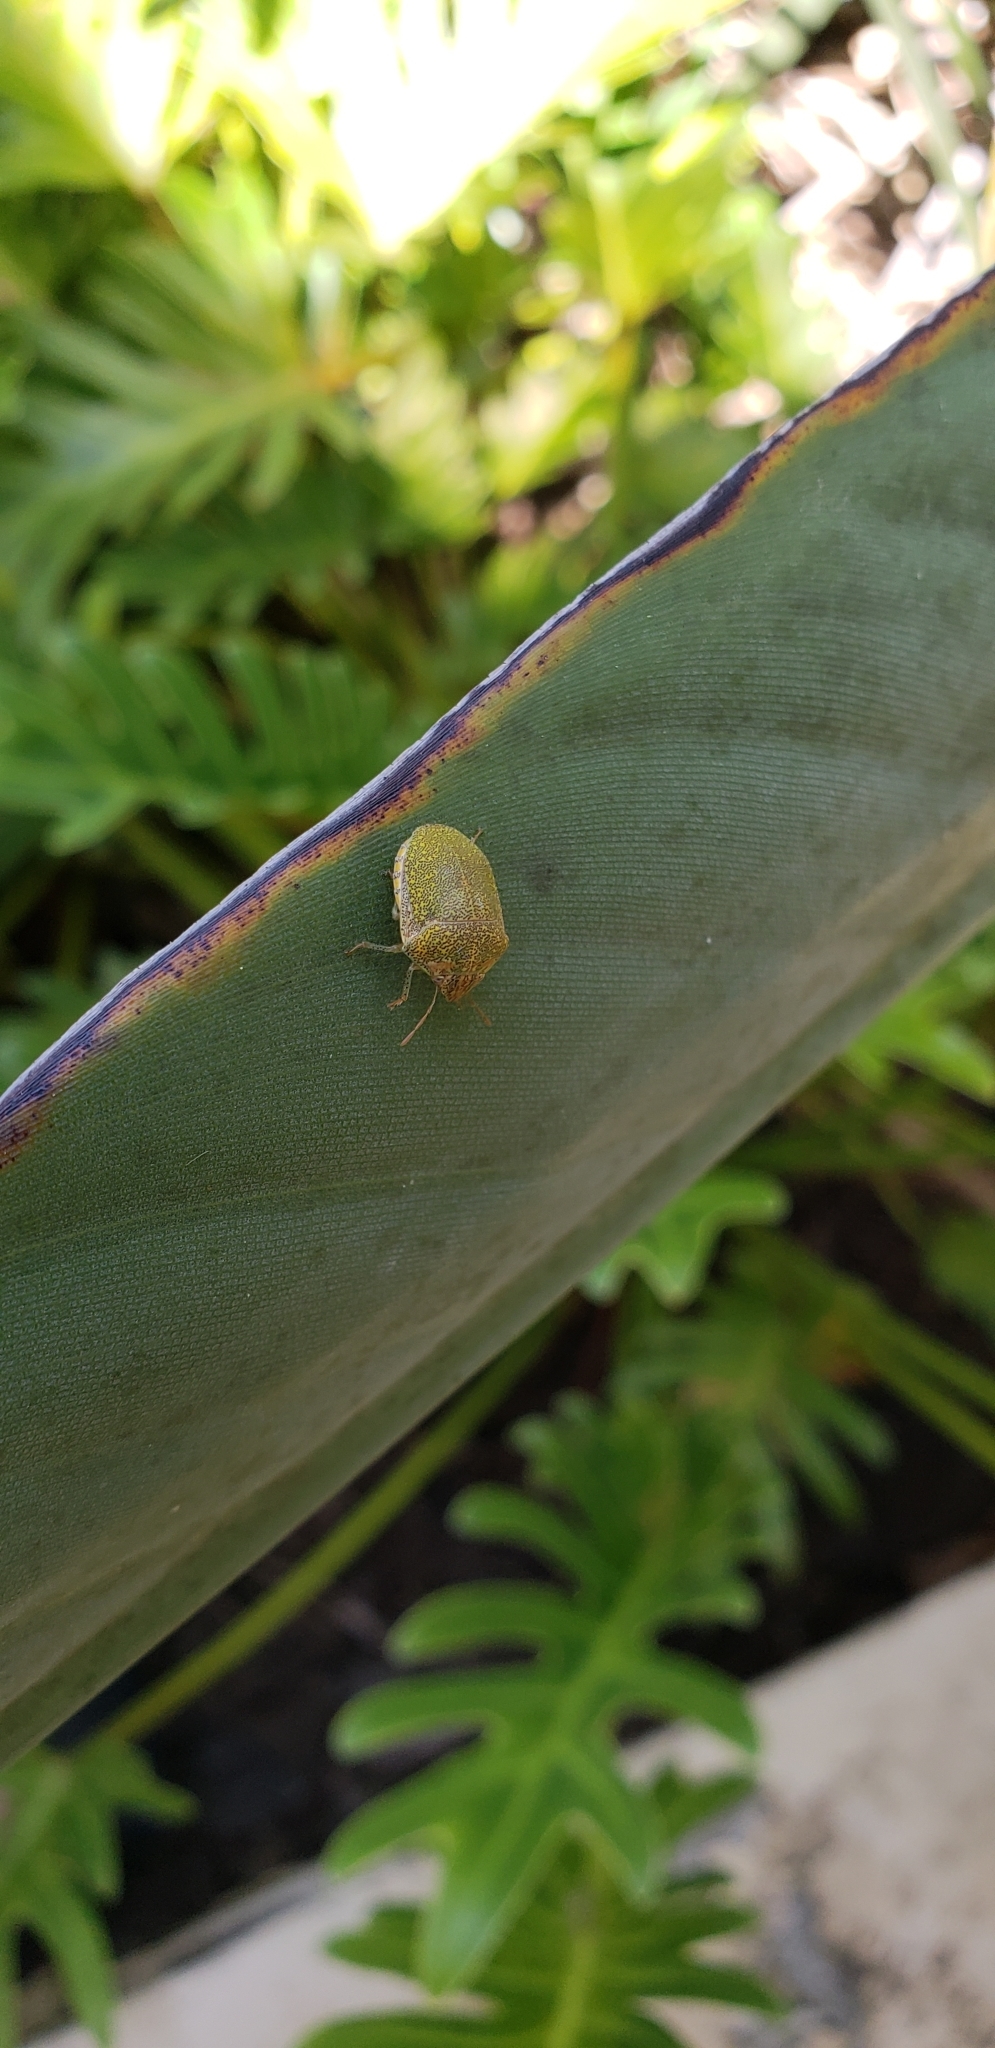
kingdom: Animalia
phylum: Arthropoda
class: Insecta
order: Hemiptera
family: Scutelleridae
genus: Diolcus
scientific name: Diolcus irroratus
